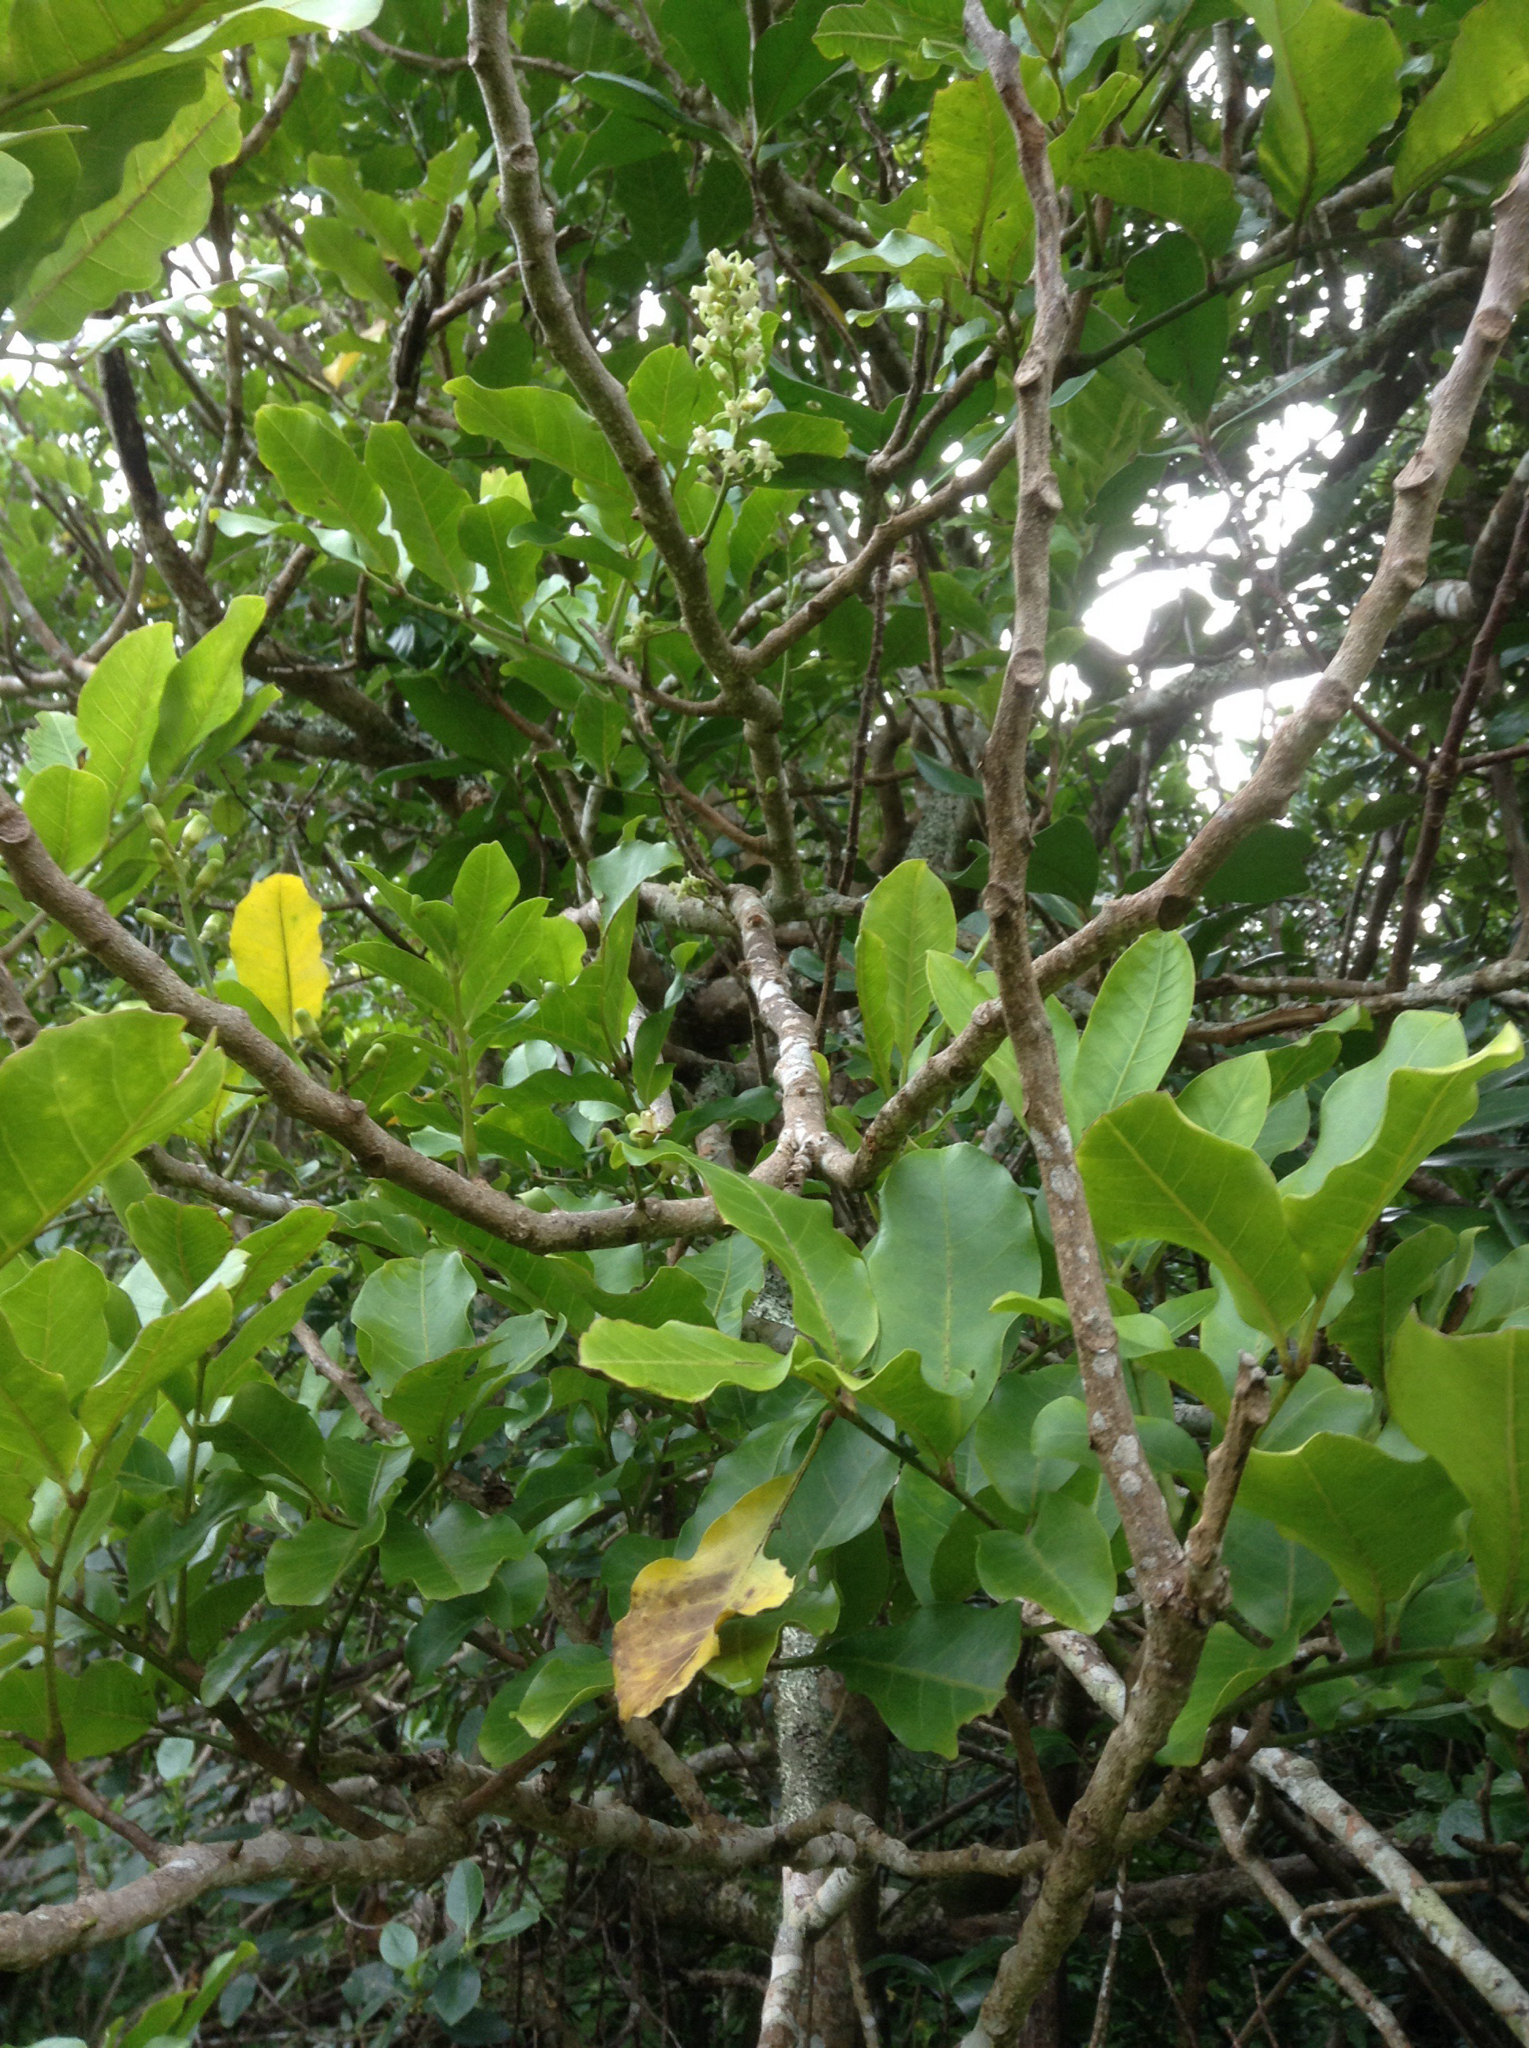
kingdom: Plantae
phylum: Tracheophyta
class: Magnoliopsida
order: Sapindales
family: Meliaceae
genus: Didymocheton
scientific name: Didymocheton spectabilis
